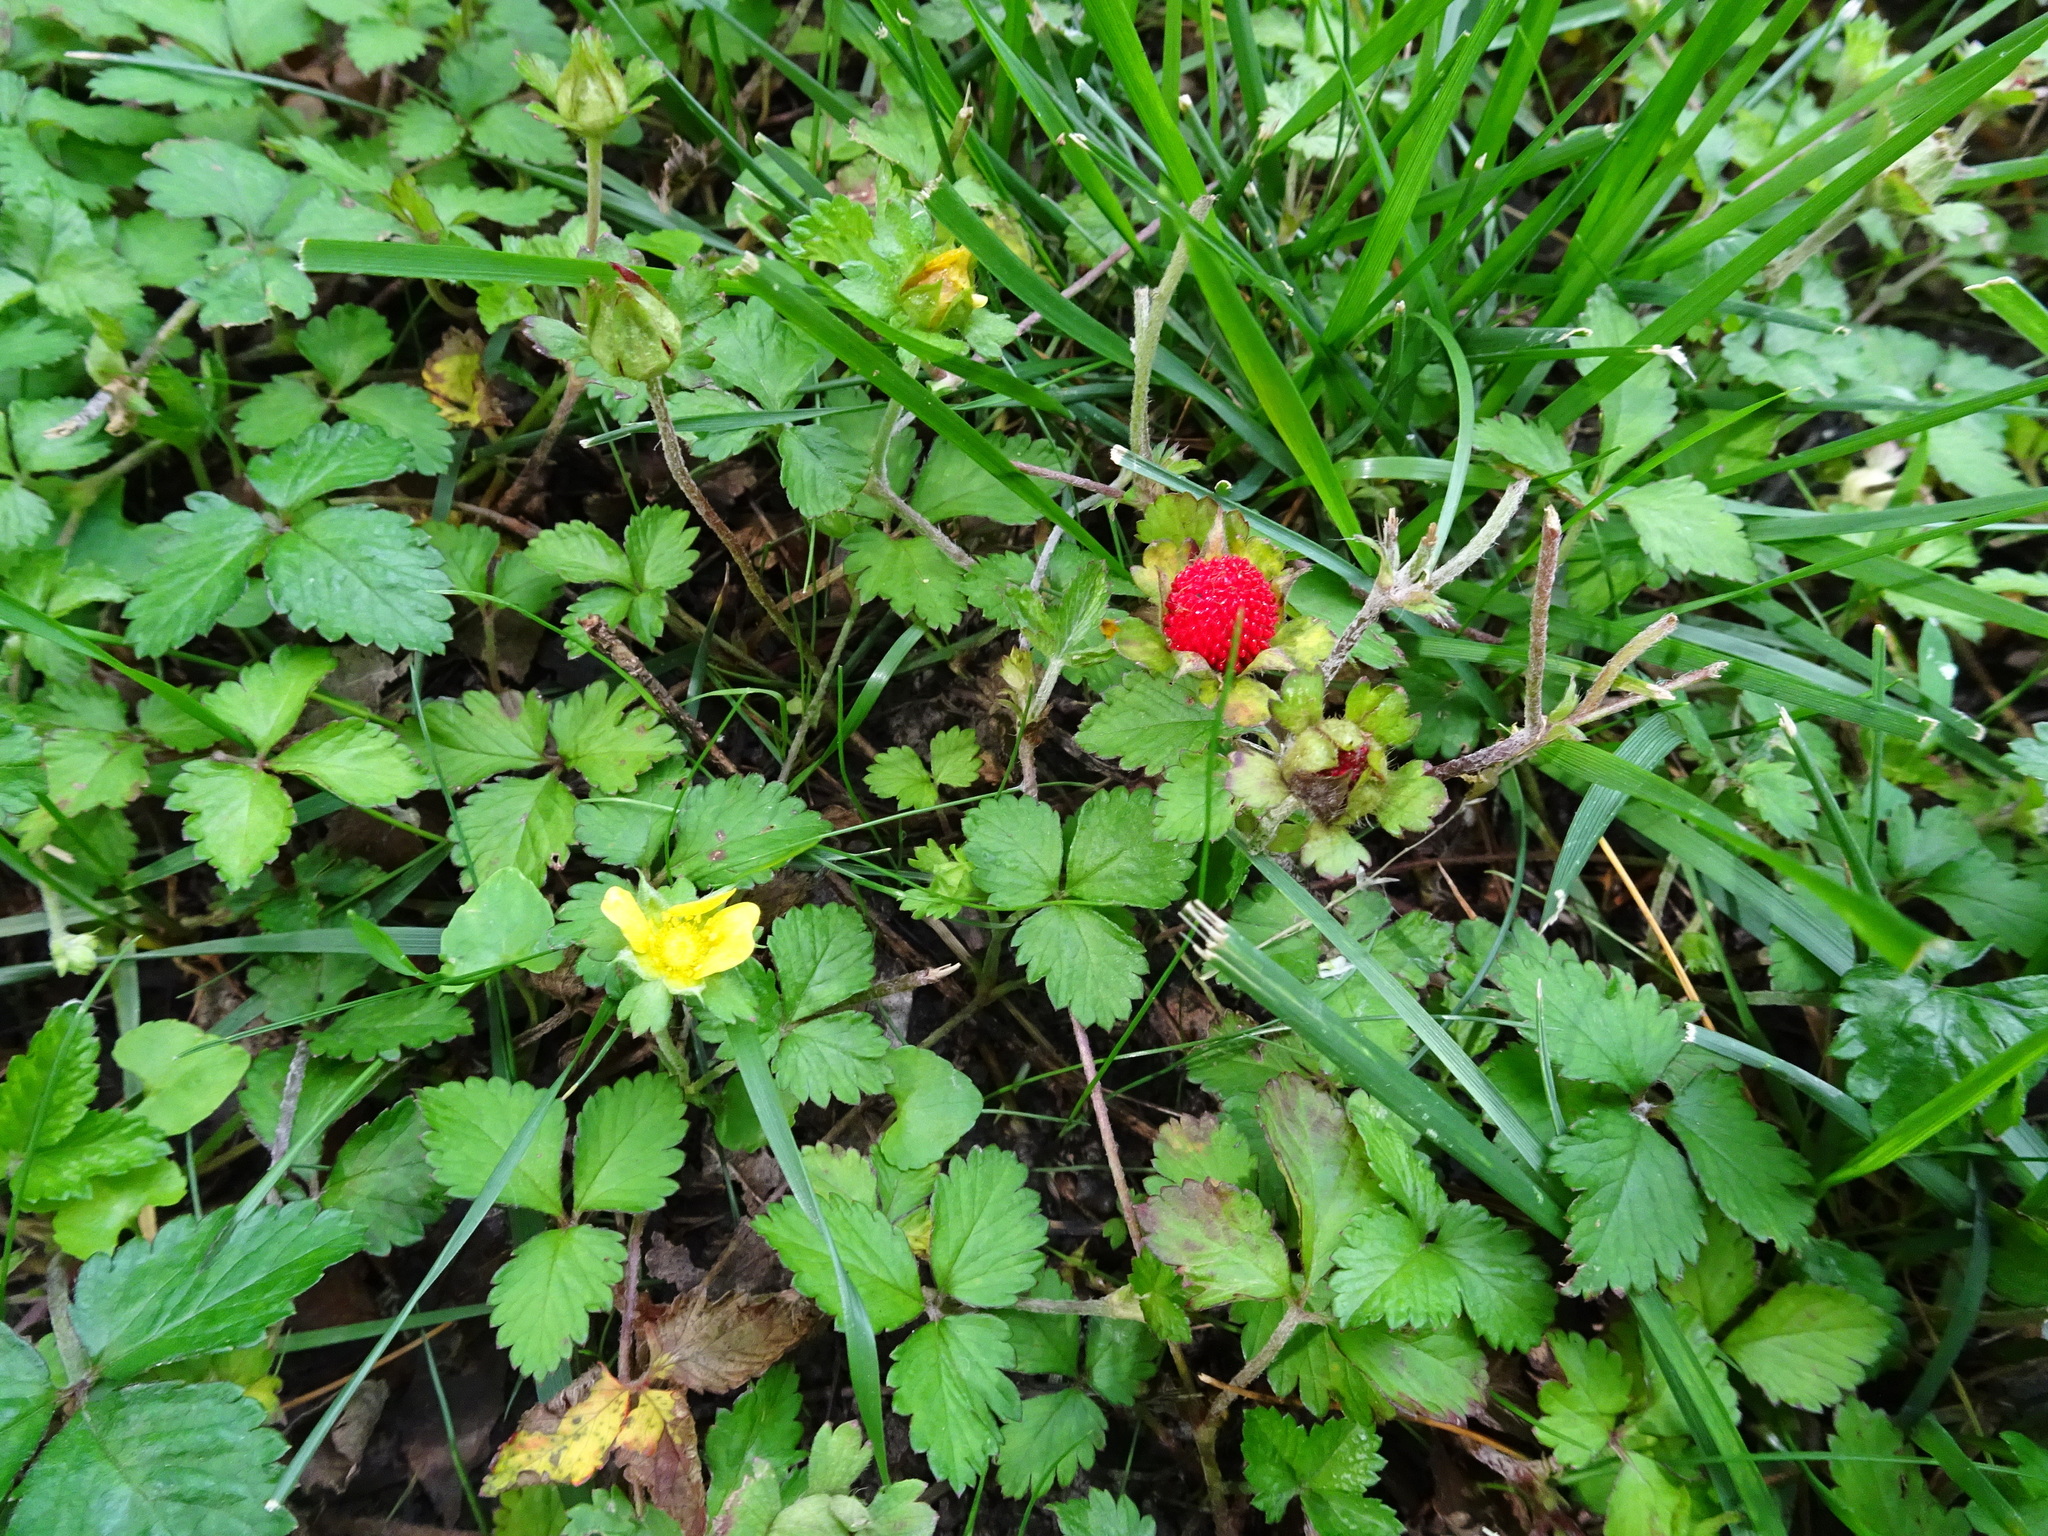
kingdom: Plantae
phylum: Tracheophyta
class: Magnoliopsida
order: Rosales
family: Rosaceae
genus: Potentilla
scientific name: Potentilla indica
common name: Yellow-flowered strawberry
